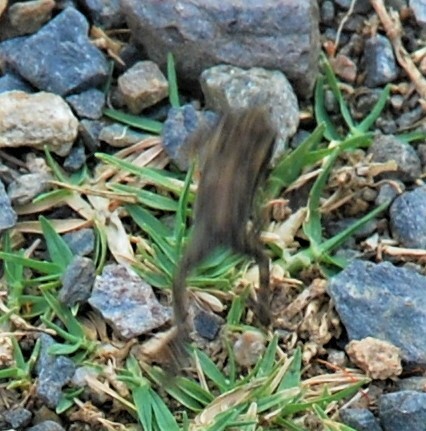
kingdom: Animalia
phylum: Chordata
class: Amphibia
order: Anura
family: Bufonidae
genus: Rhinella
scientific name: Rhinella marina
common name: Cane toad
